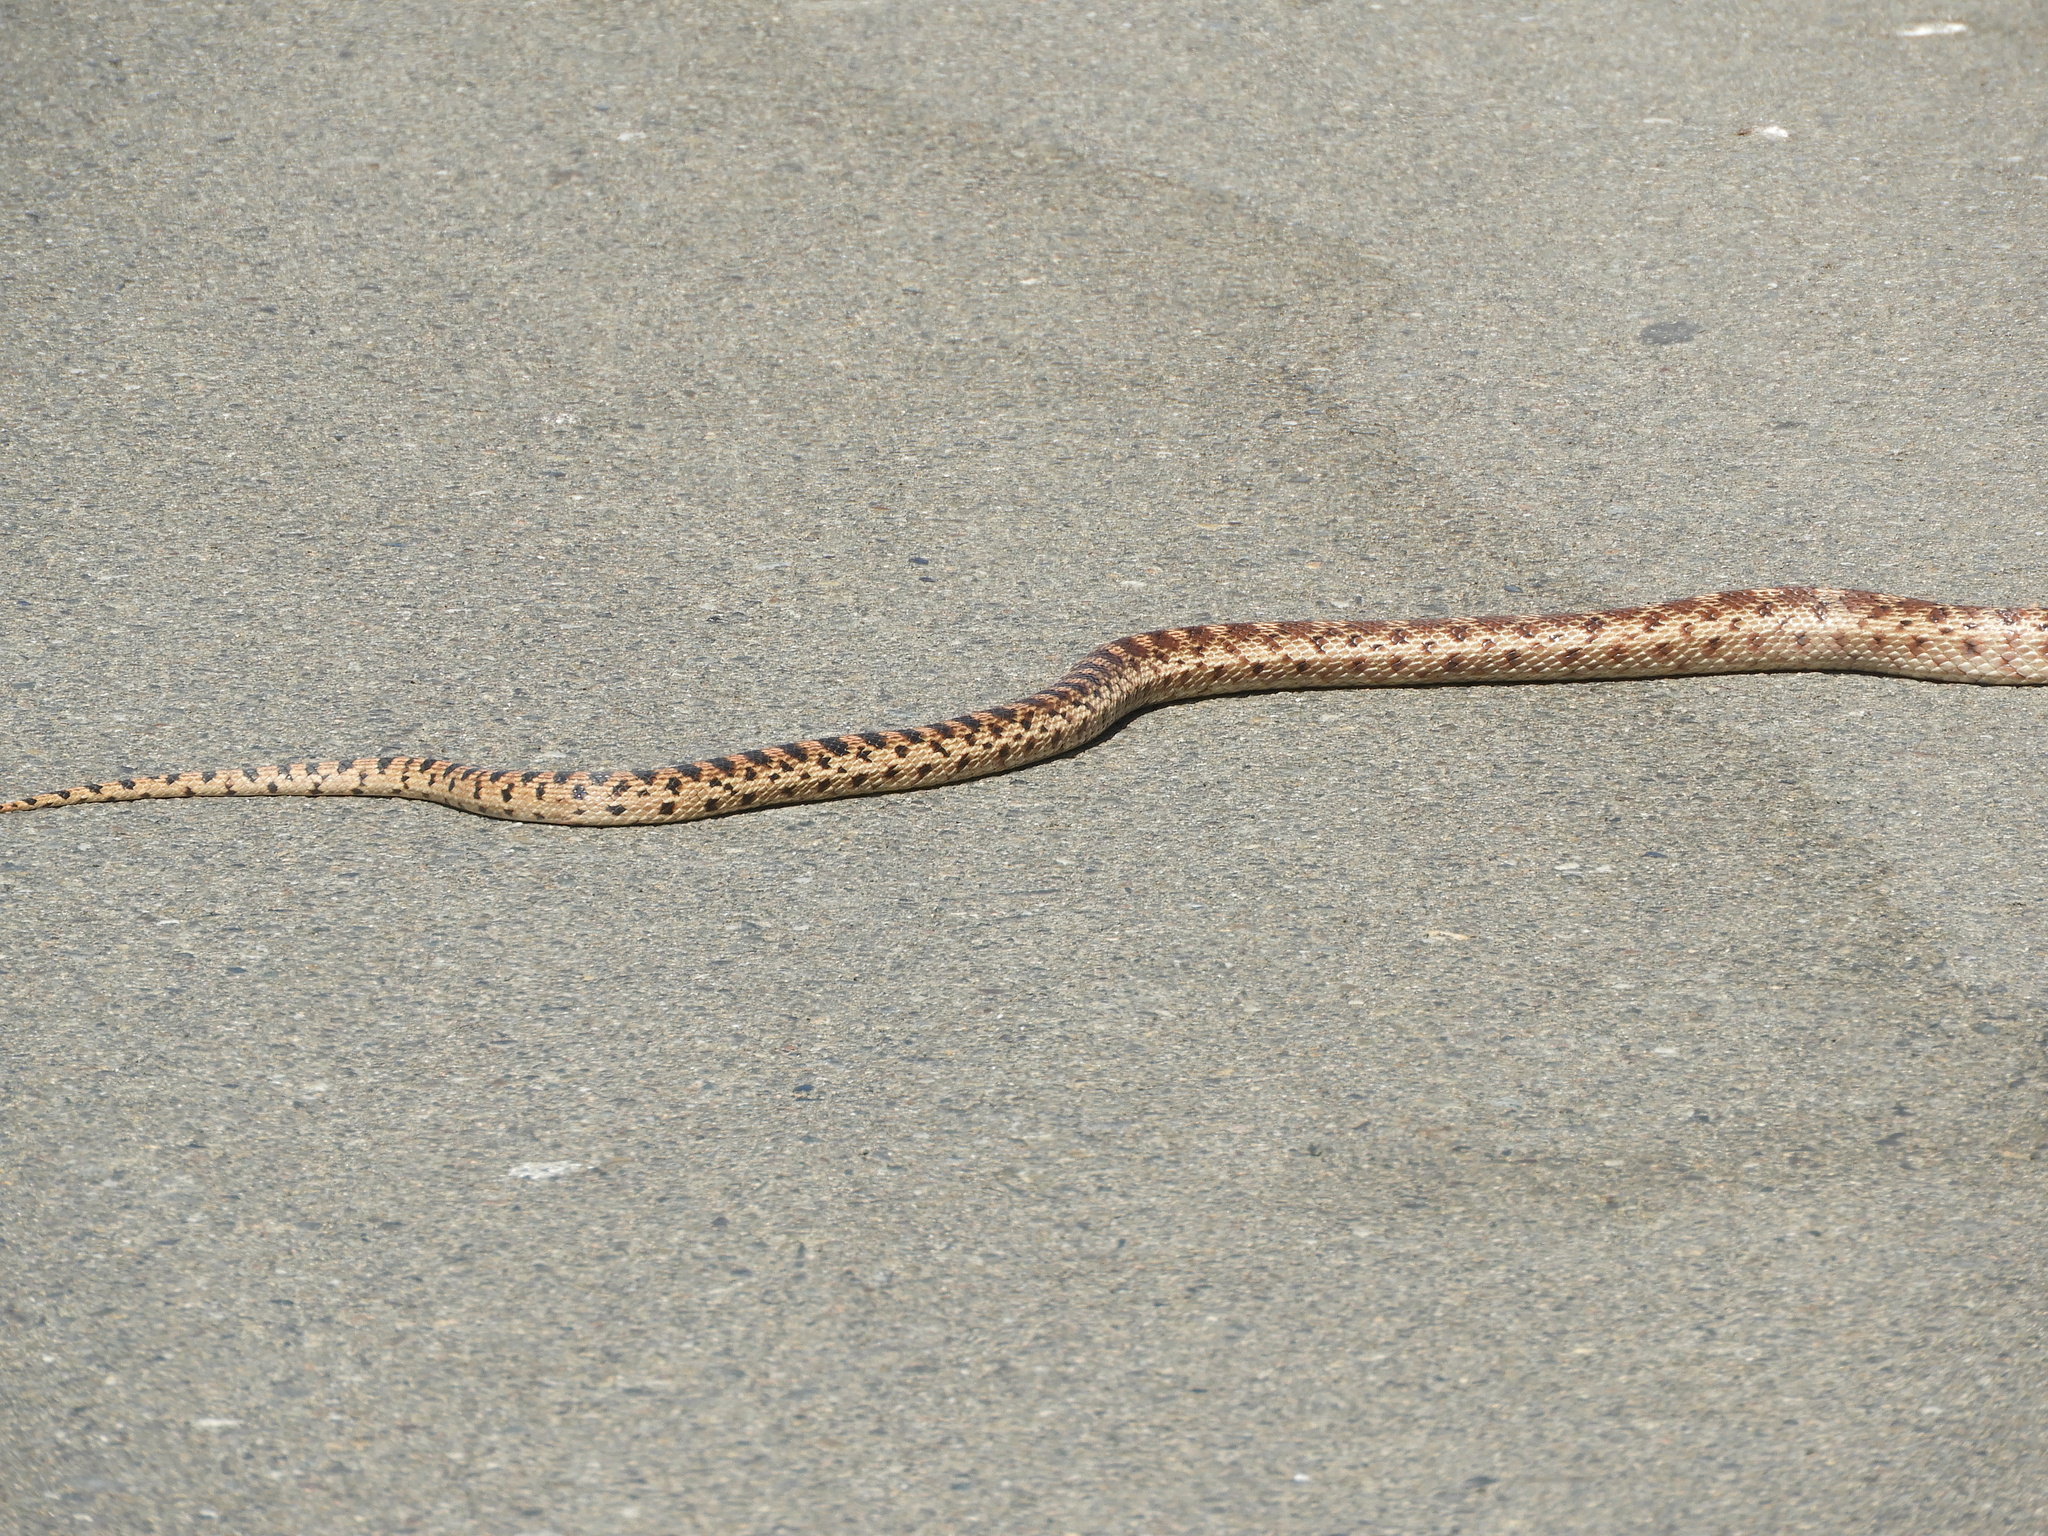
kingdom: Animalia
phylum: Chordata
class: Squamata
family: Colubridae
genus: Pituophis
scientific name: Pituophis catenifer
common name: Gopher snake
